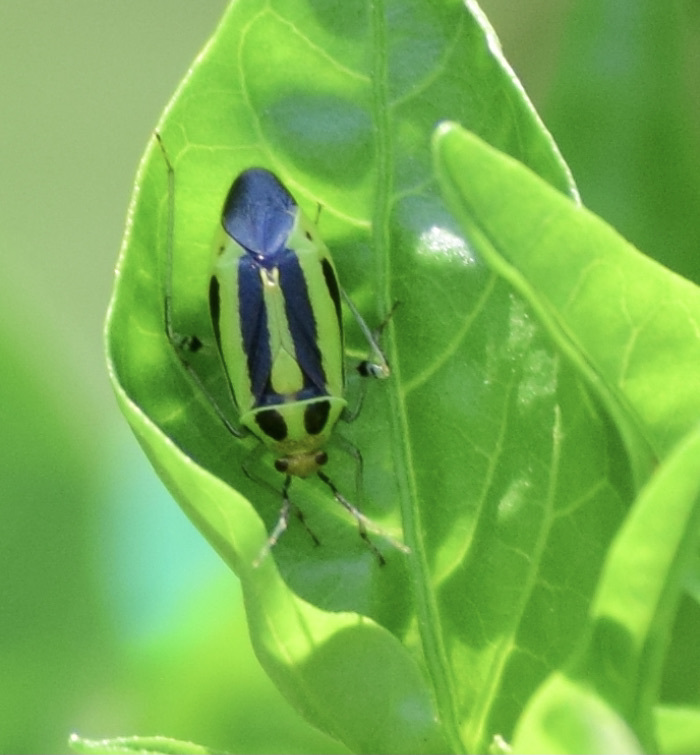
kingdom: Animalia
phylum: Arthropoda
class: Insecta
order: Hemiptera
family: Miridae
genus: Poecilocapsus
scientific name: Poecilocapsus lineatus
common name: Four-lined plant bug
